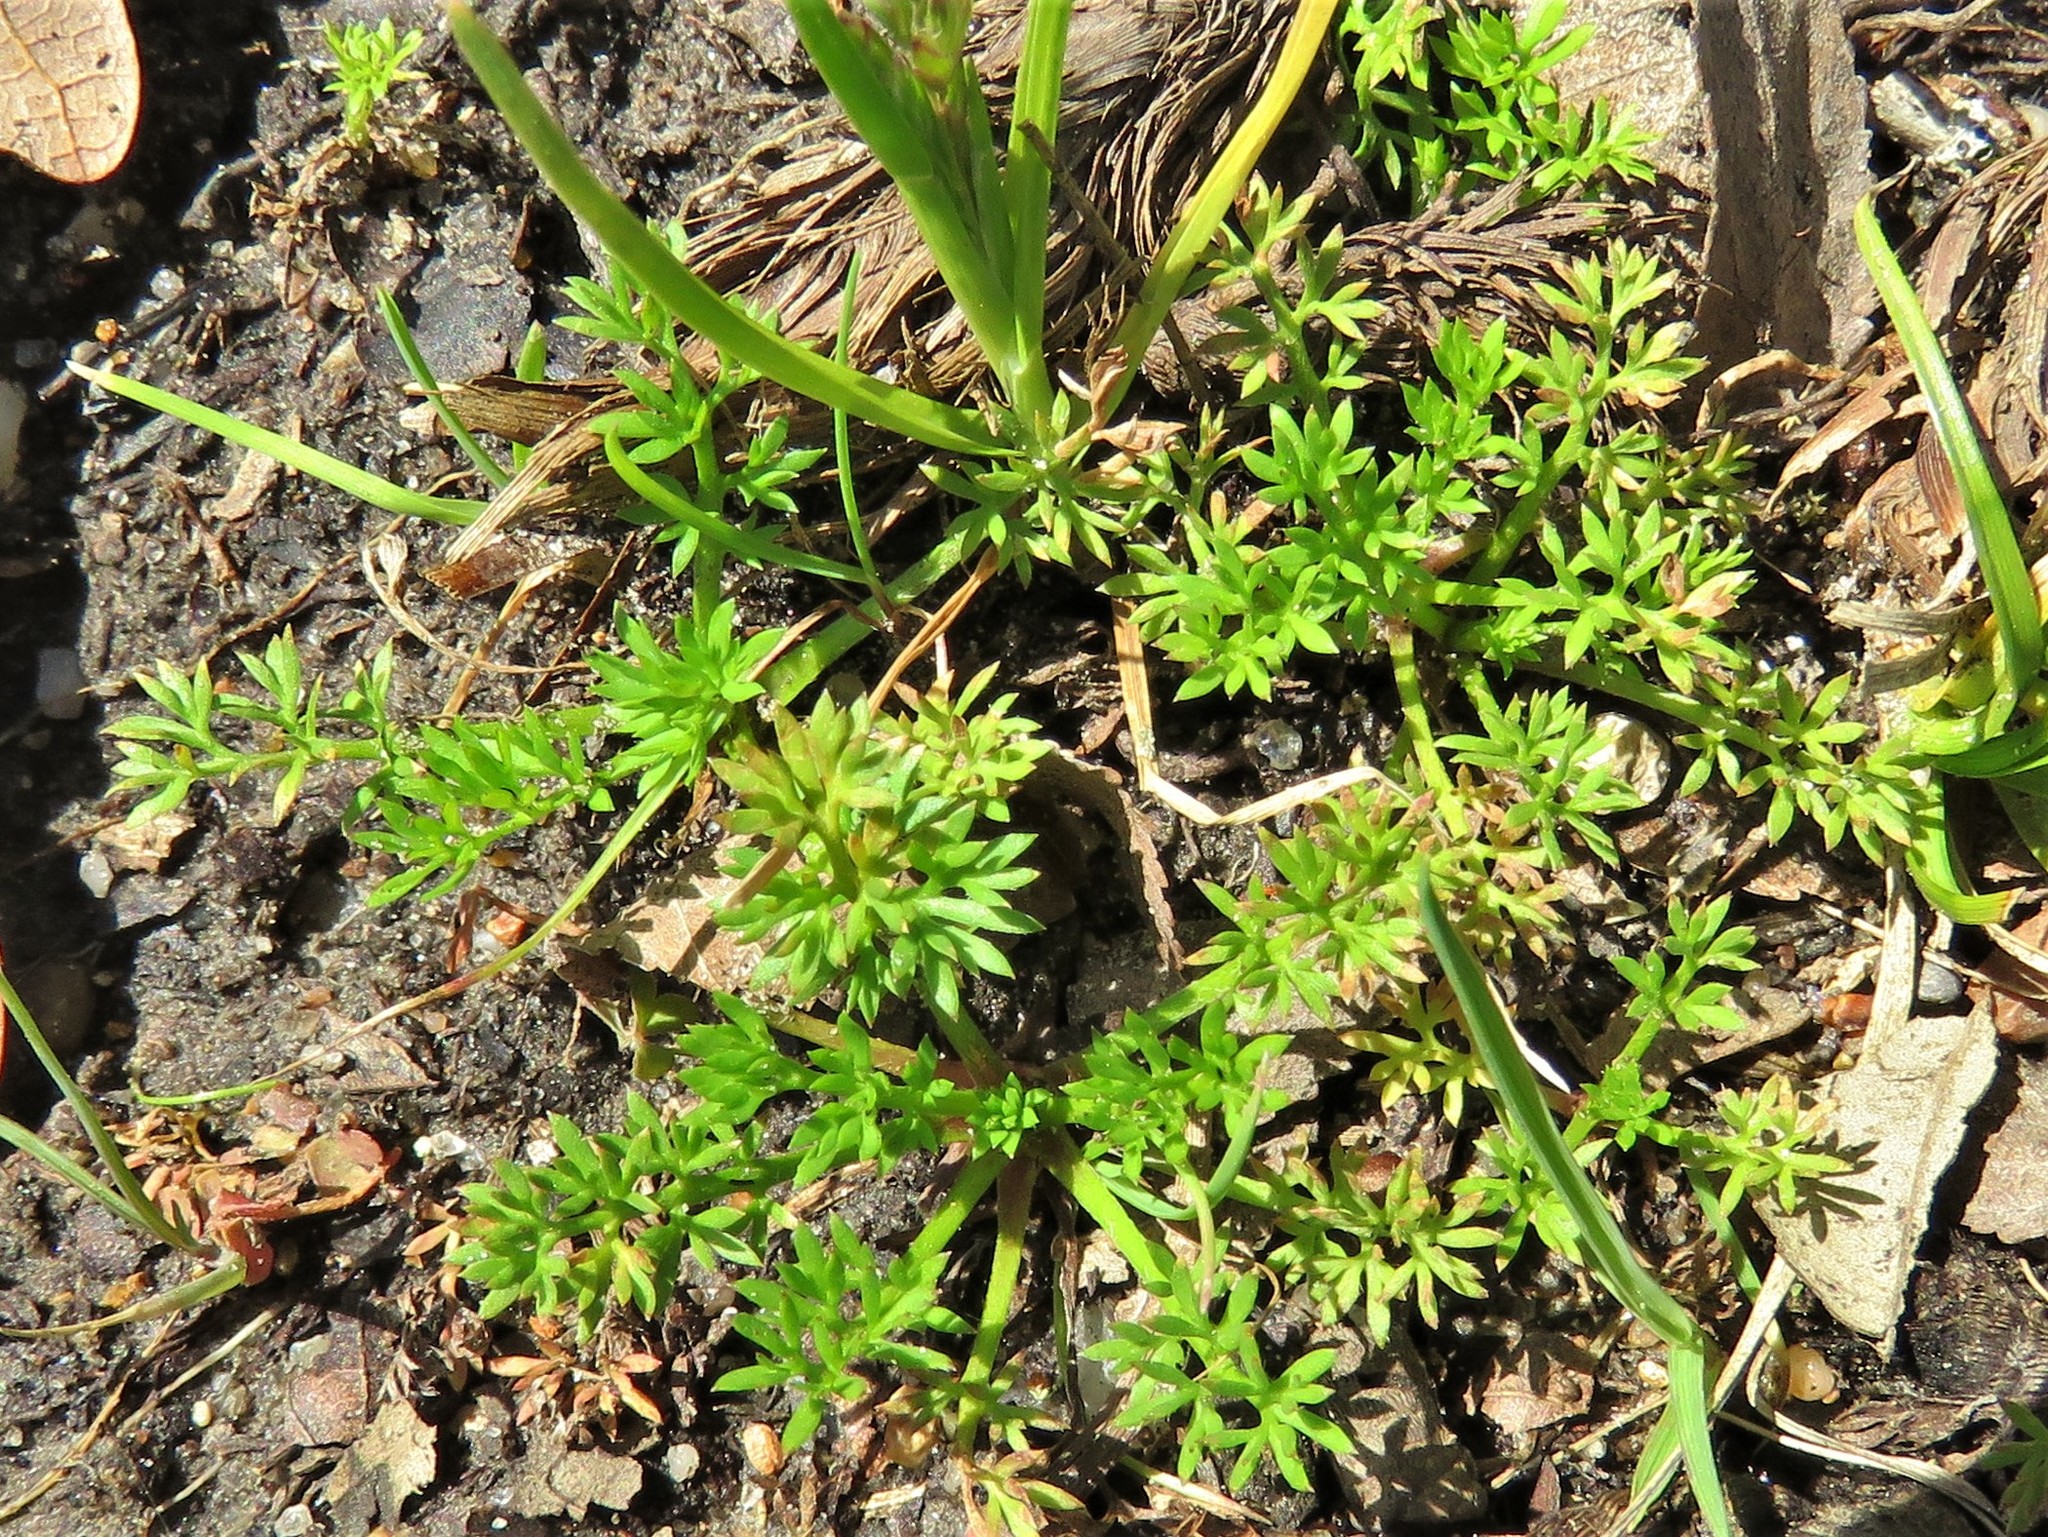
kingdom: Plantae
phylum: Tracheophyta
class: Magnoliopsida
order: Asterales
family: Asteraceae
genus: Soliva
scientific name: Soliva sessilis
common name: Field burrweed
